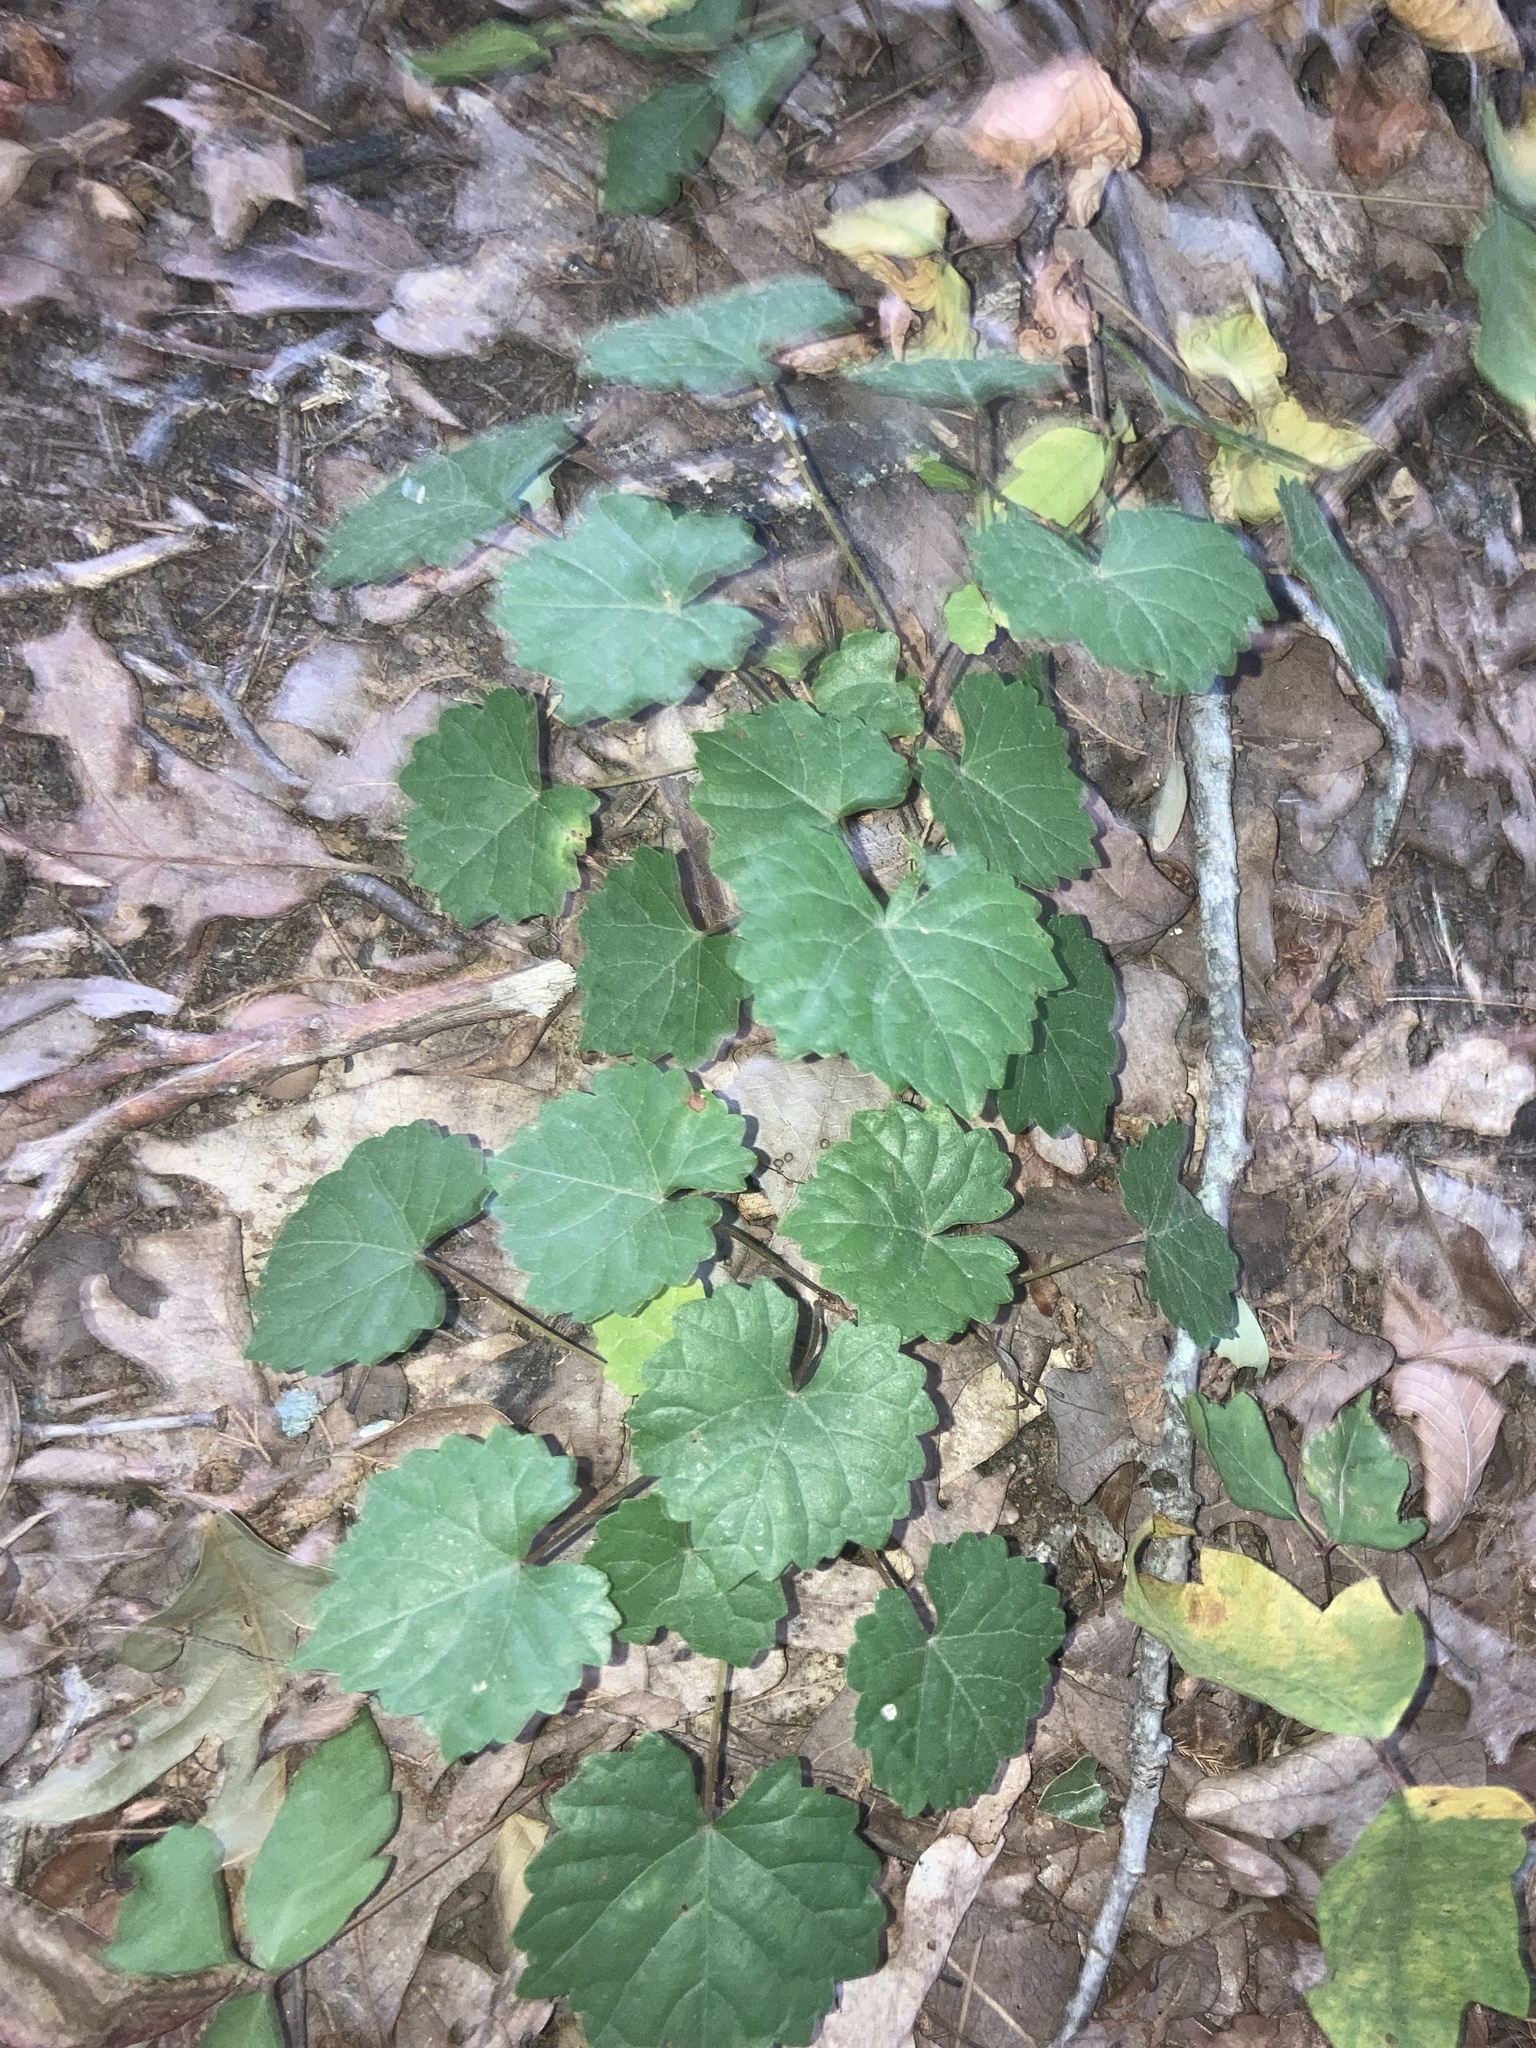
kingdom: Plantae
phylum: Tracheophyta
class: Magnoliopsida
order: Vitales
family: Vitaceae
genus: Vitis
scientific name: Vitis rotundifolia
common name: Muscadine grape
